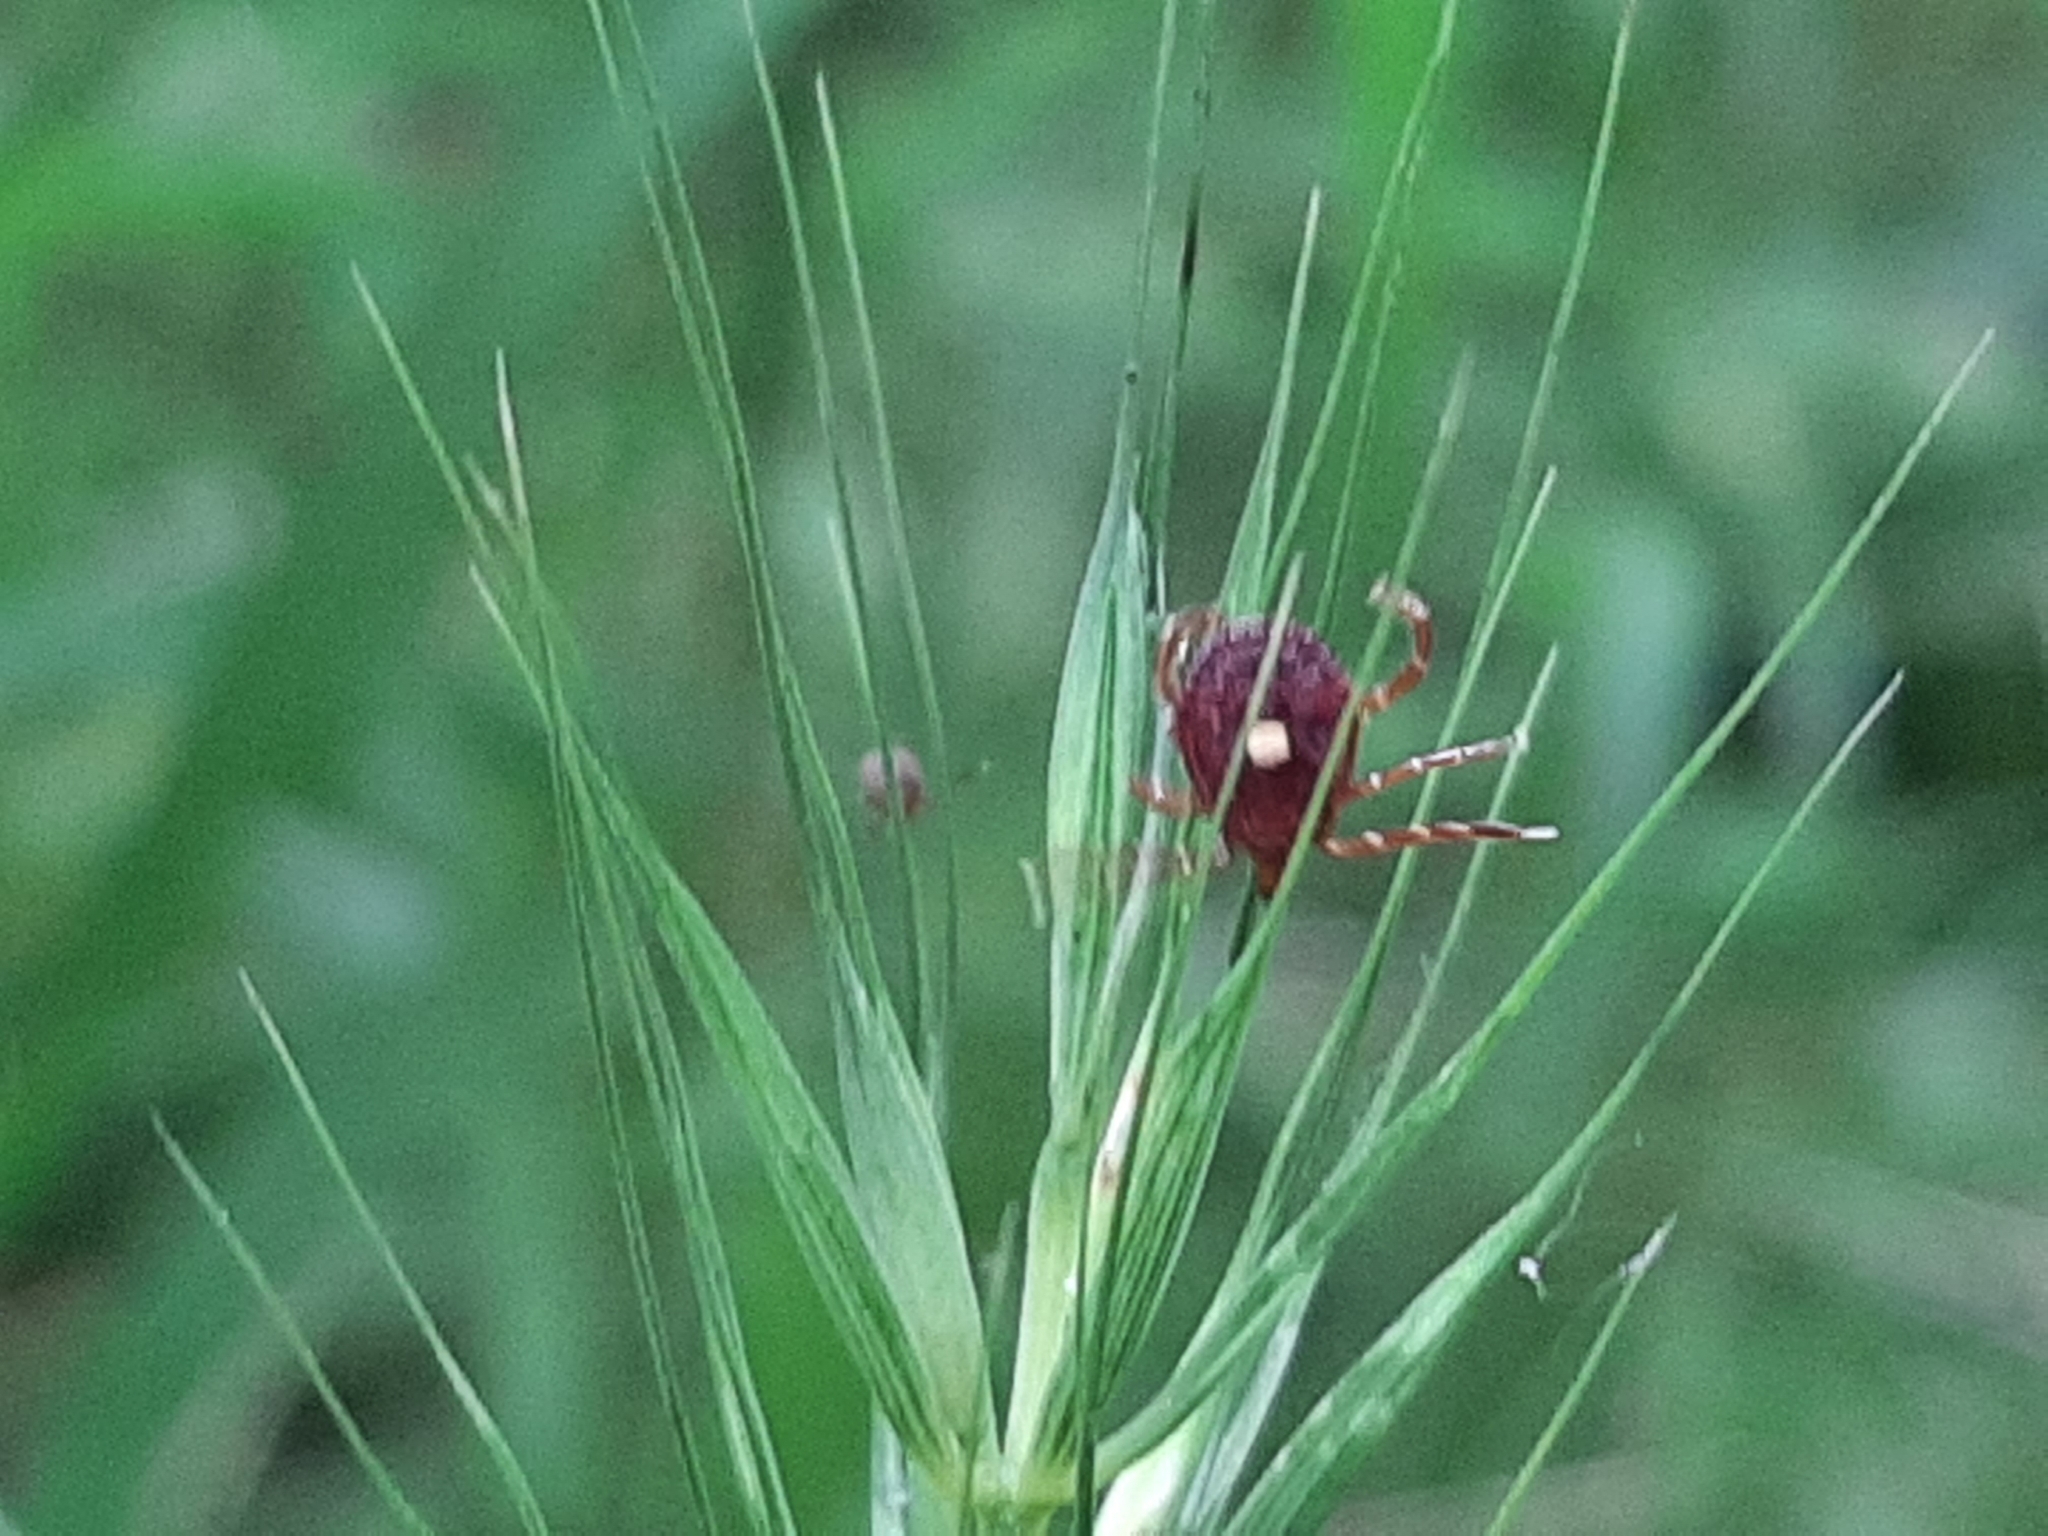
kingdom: Animalia
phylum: Arthropoda
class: Arachnida
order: Ixodida
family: Ixodidae
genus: Amblyomma
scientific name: Amblyomma americanum
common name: Lone star tick
